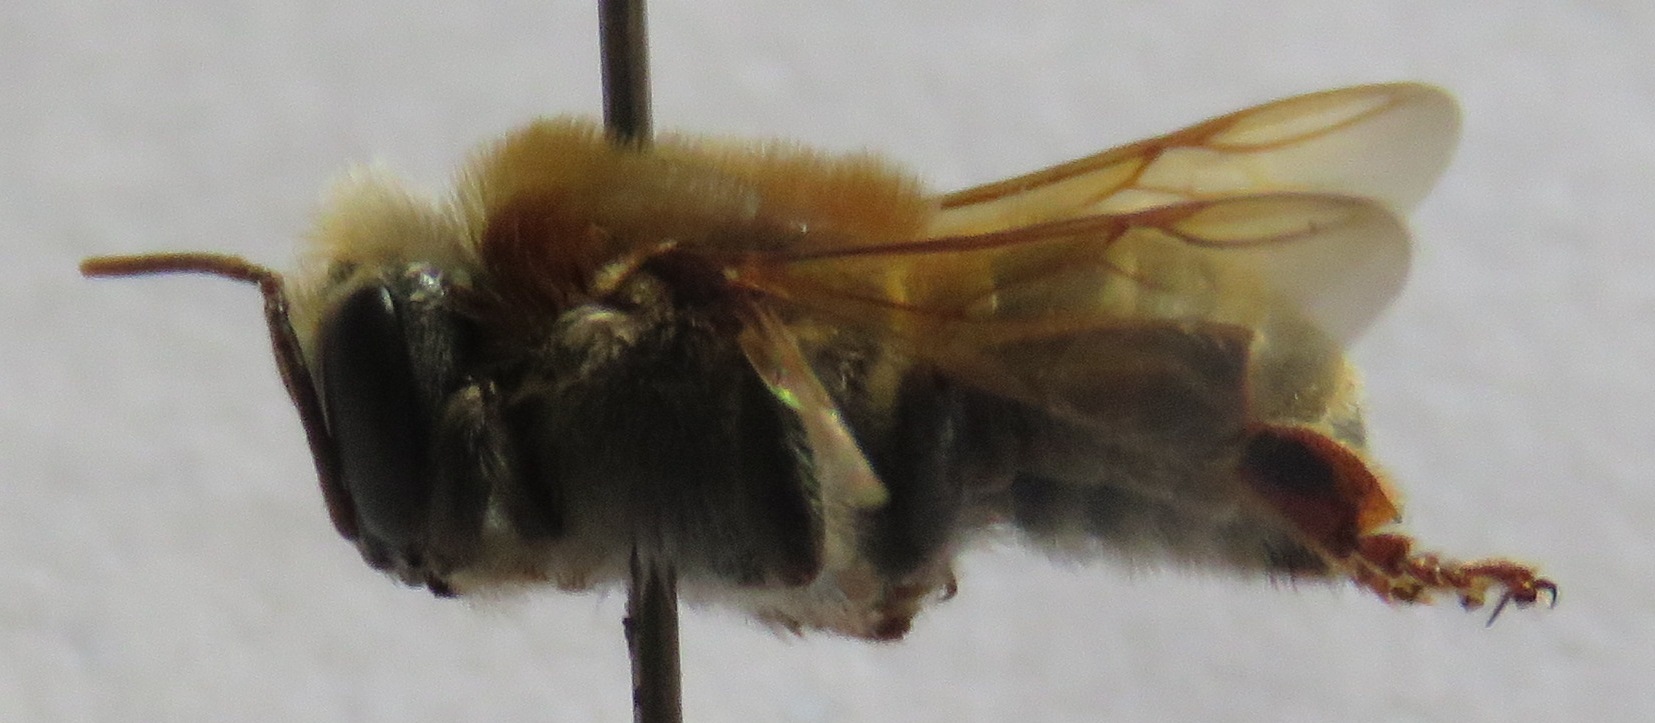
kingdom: Animalia
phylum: Arthropoda
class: Insecta
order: Hymenoptera
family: Apidae
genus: Melipona
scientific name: Melipona beecheii
